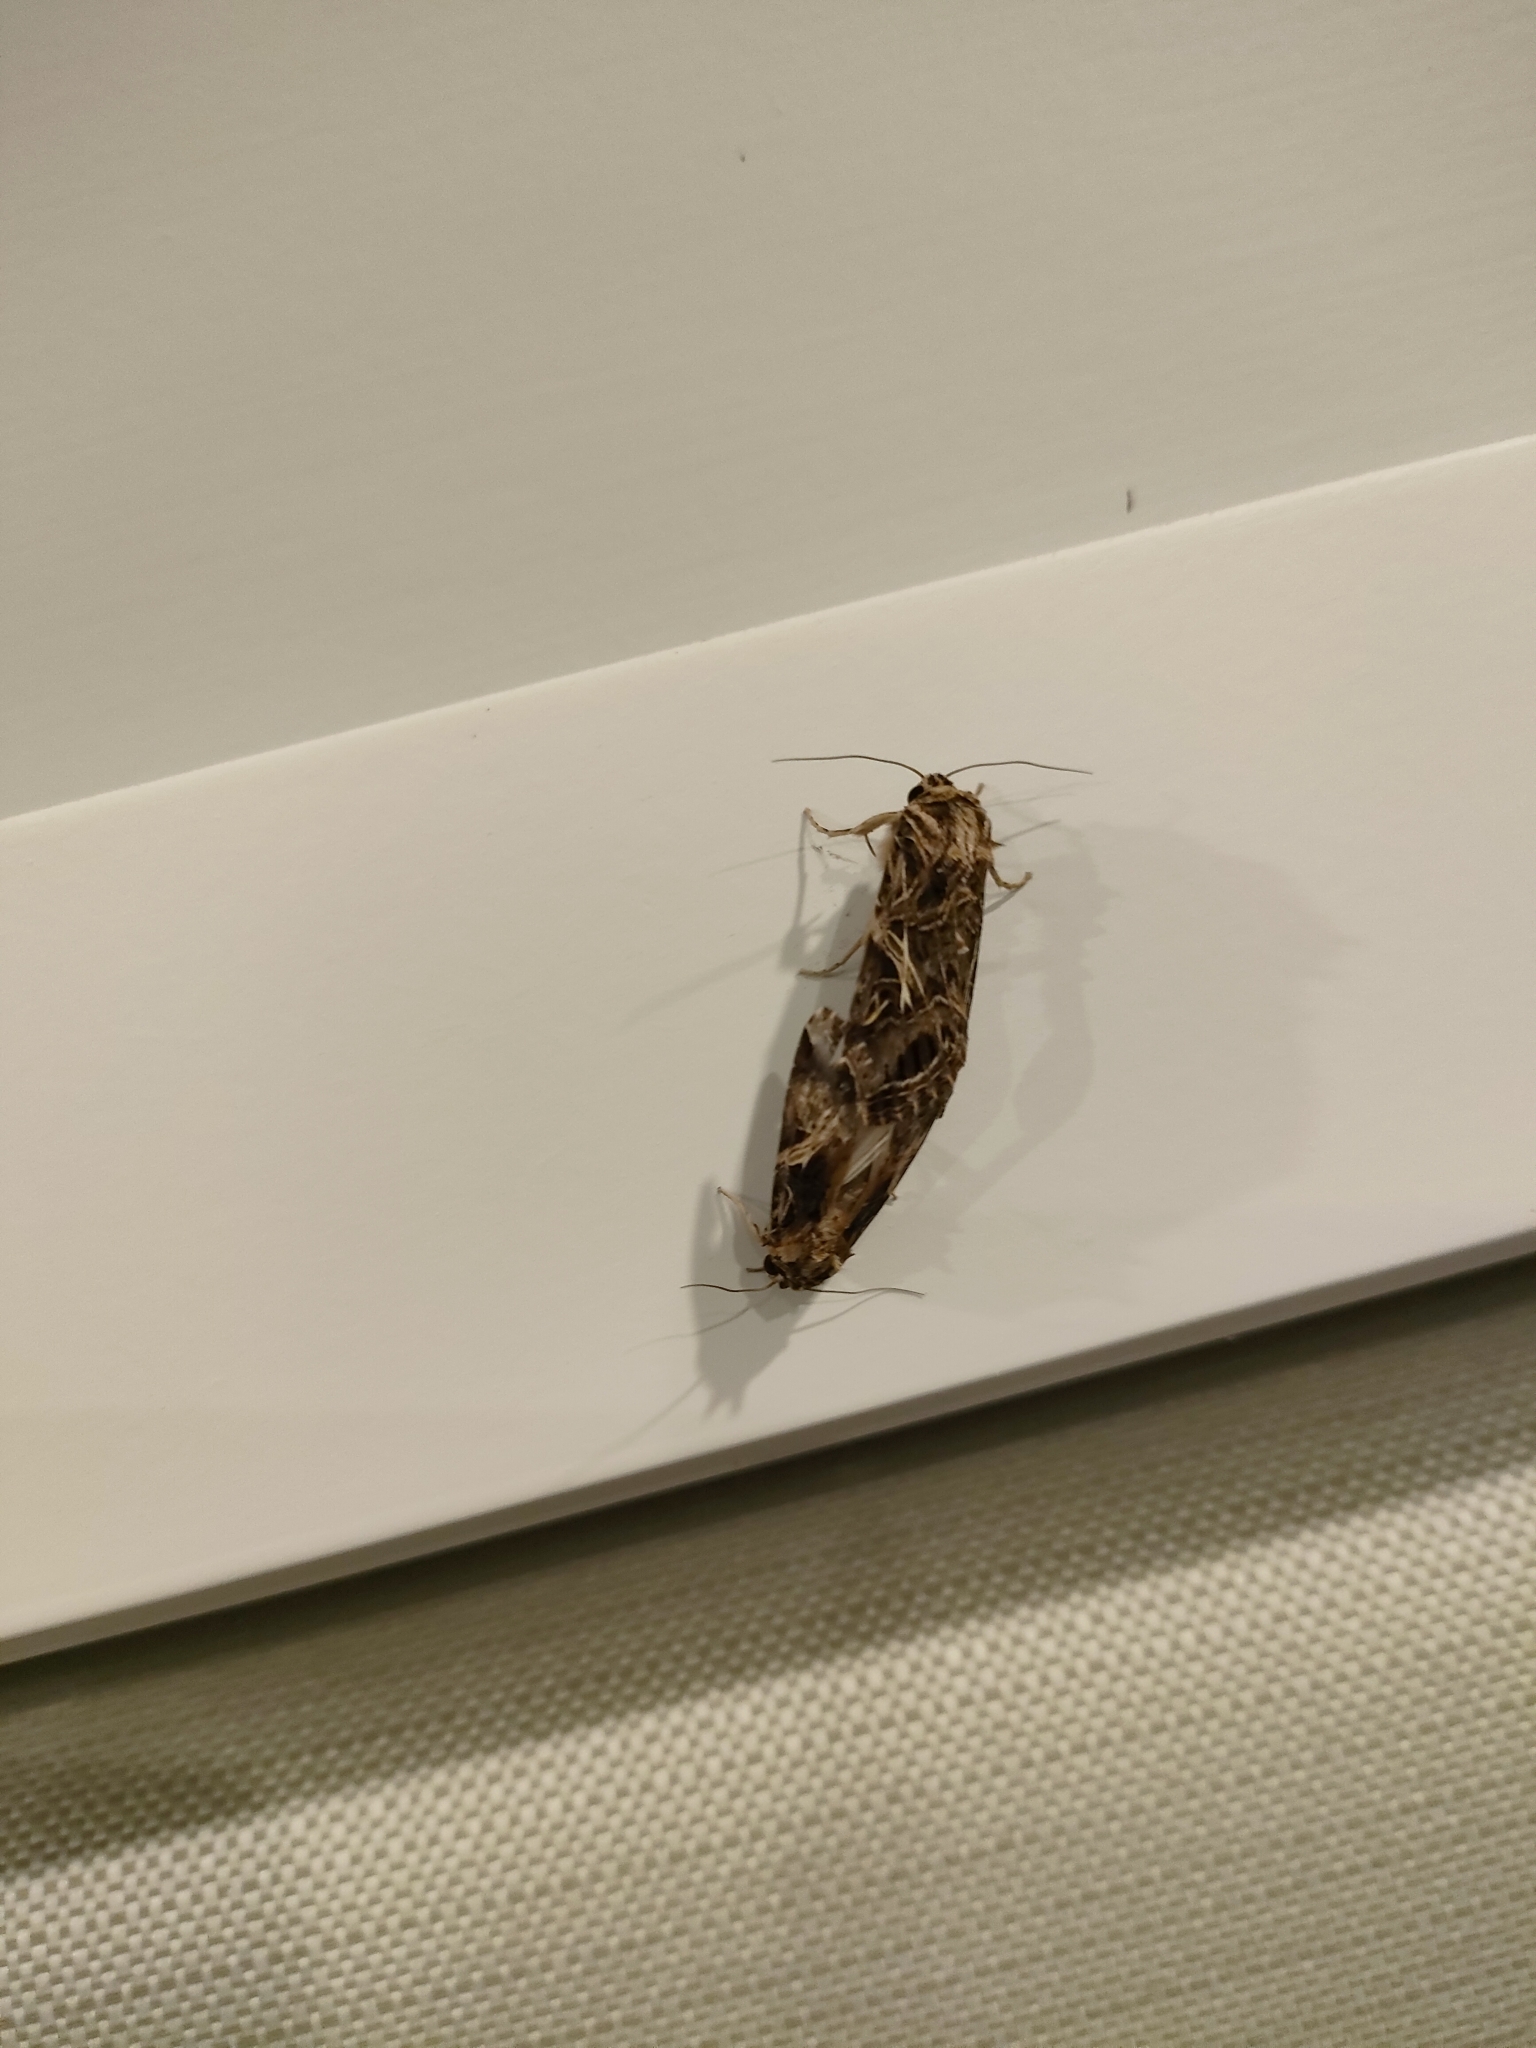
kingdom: Animalia
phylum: Arthropoda
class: Insecta
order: Lepidoptera
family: Noctuidae
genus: Spodoptera
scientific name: Spodoptera litura
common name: Asian cotton leafworm
